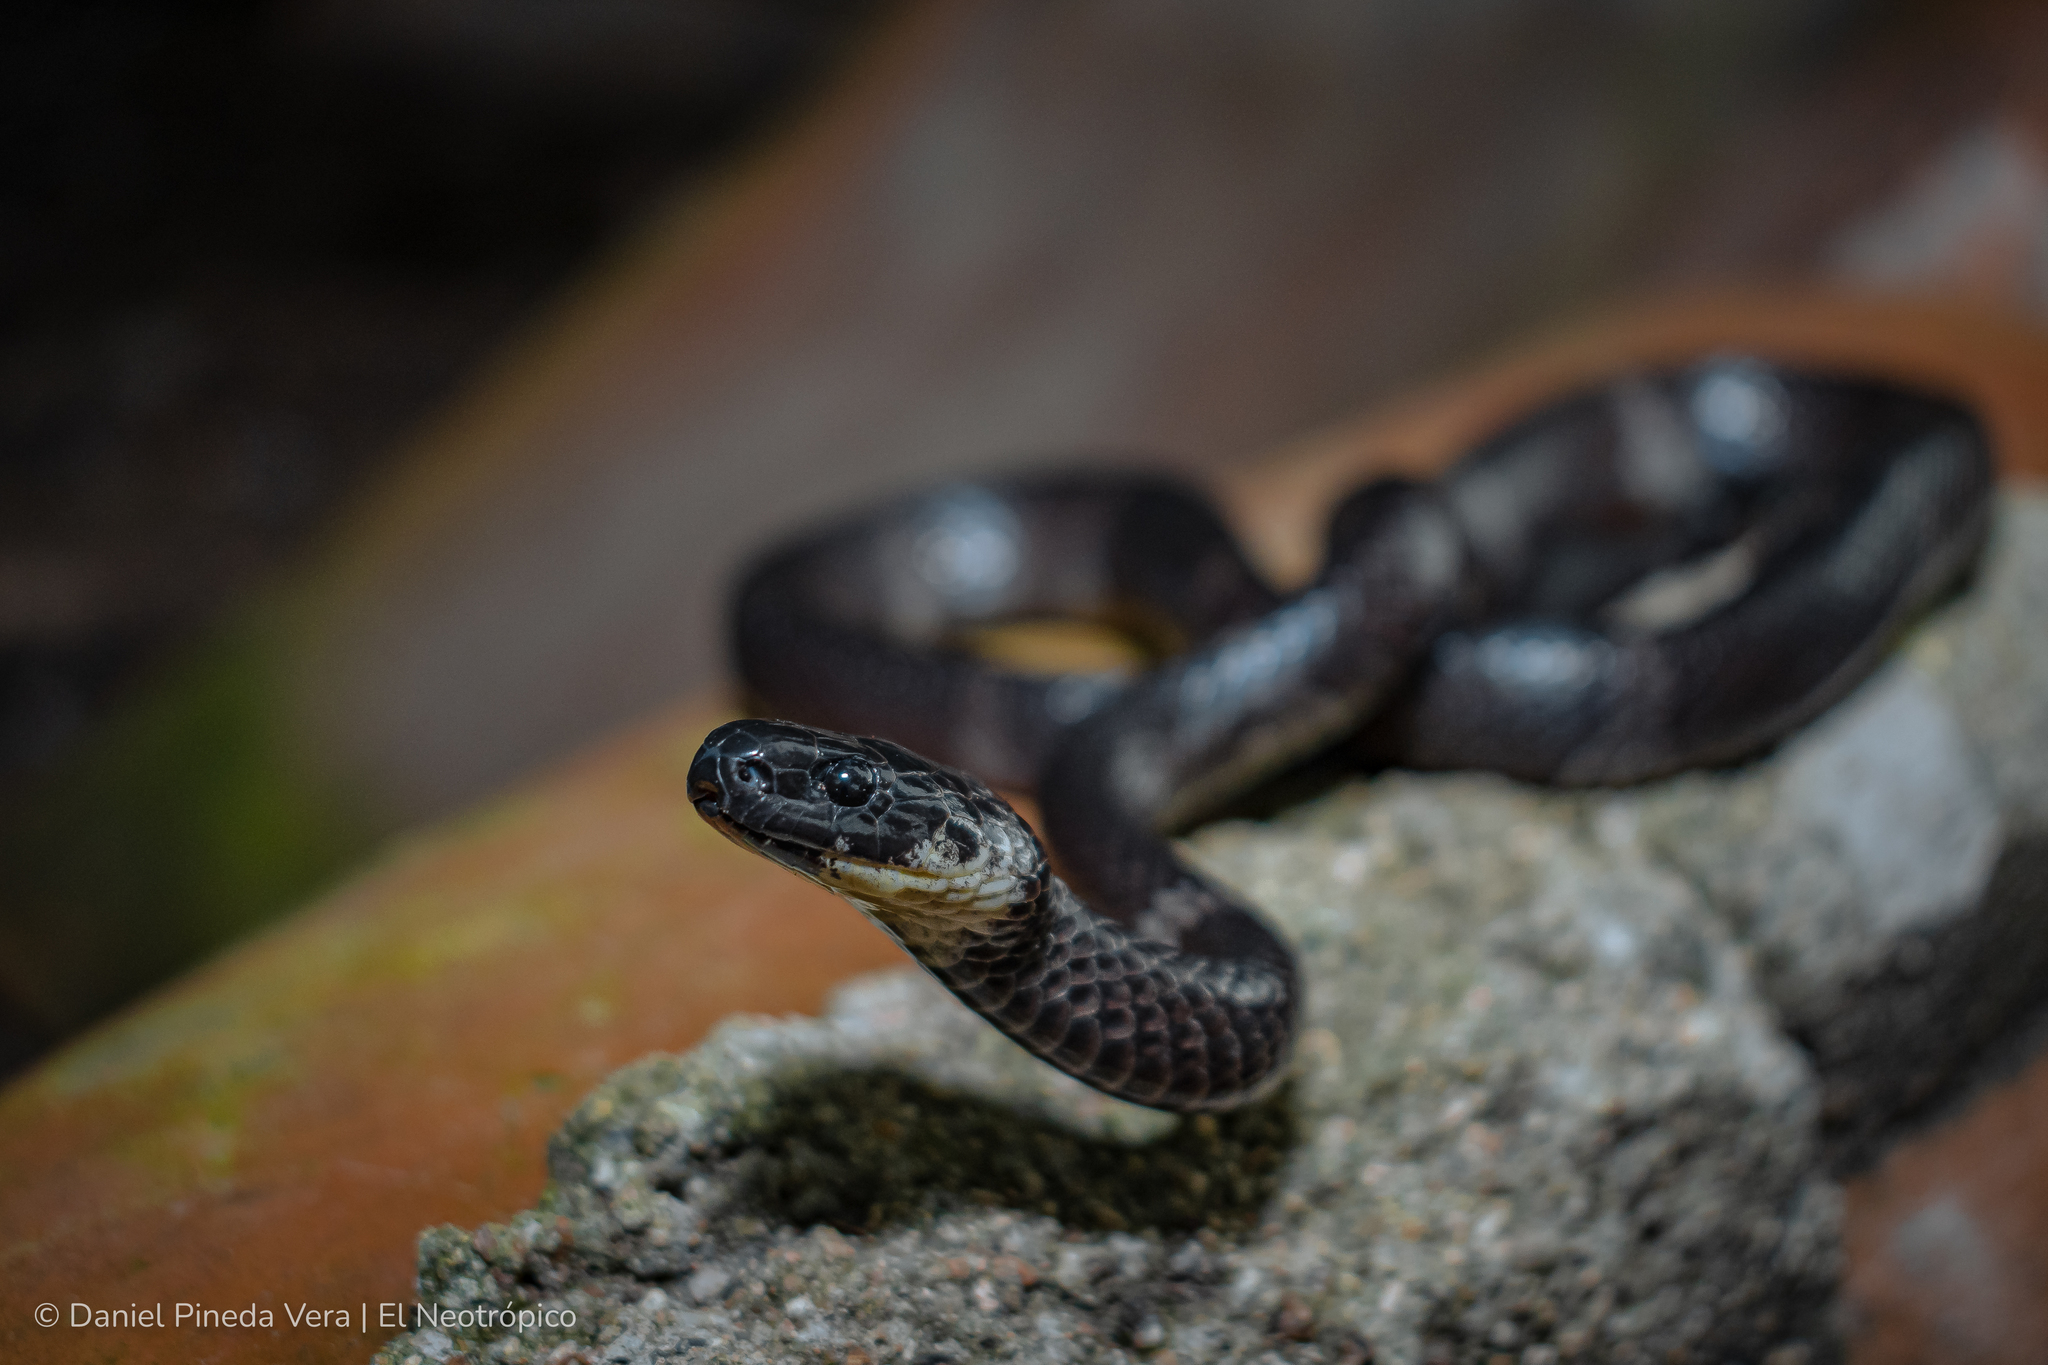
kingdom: Animalia
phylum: Chordata
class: Squamata
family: Colubridae
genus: Tropidodipsas
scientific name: Tropidodipsas fasciata
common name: Banded snail sucker
